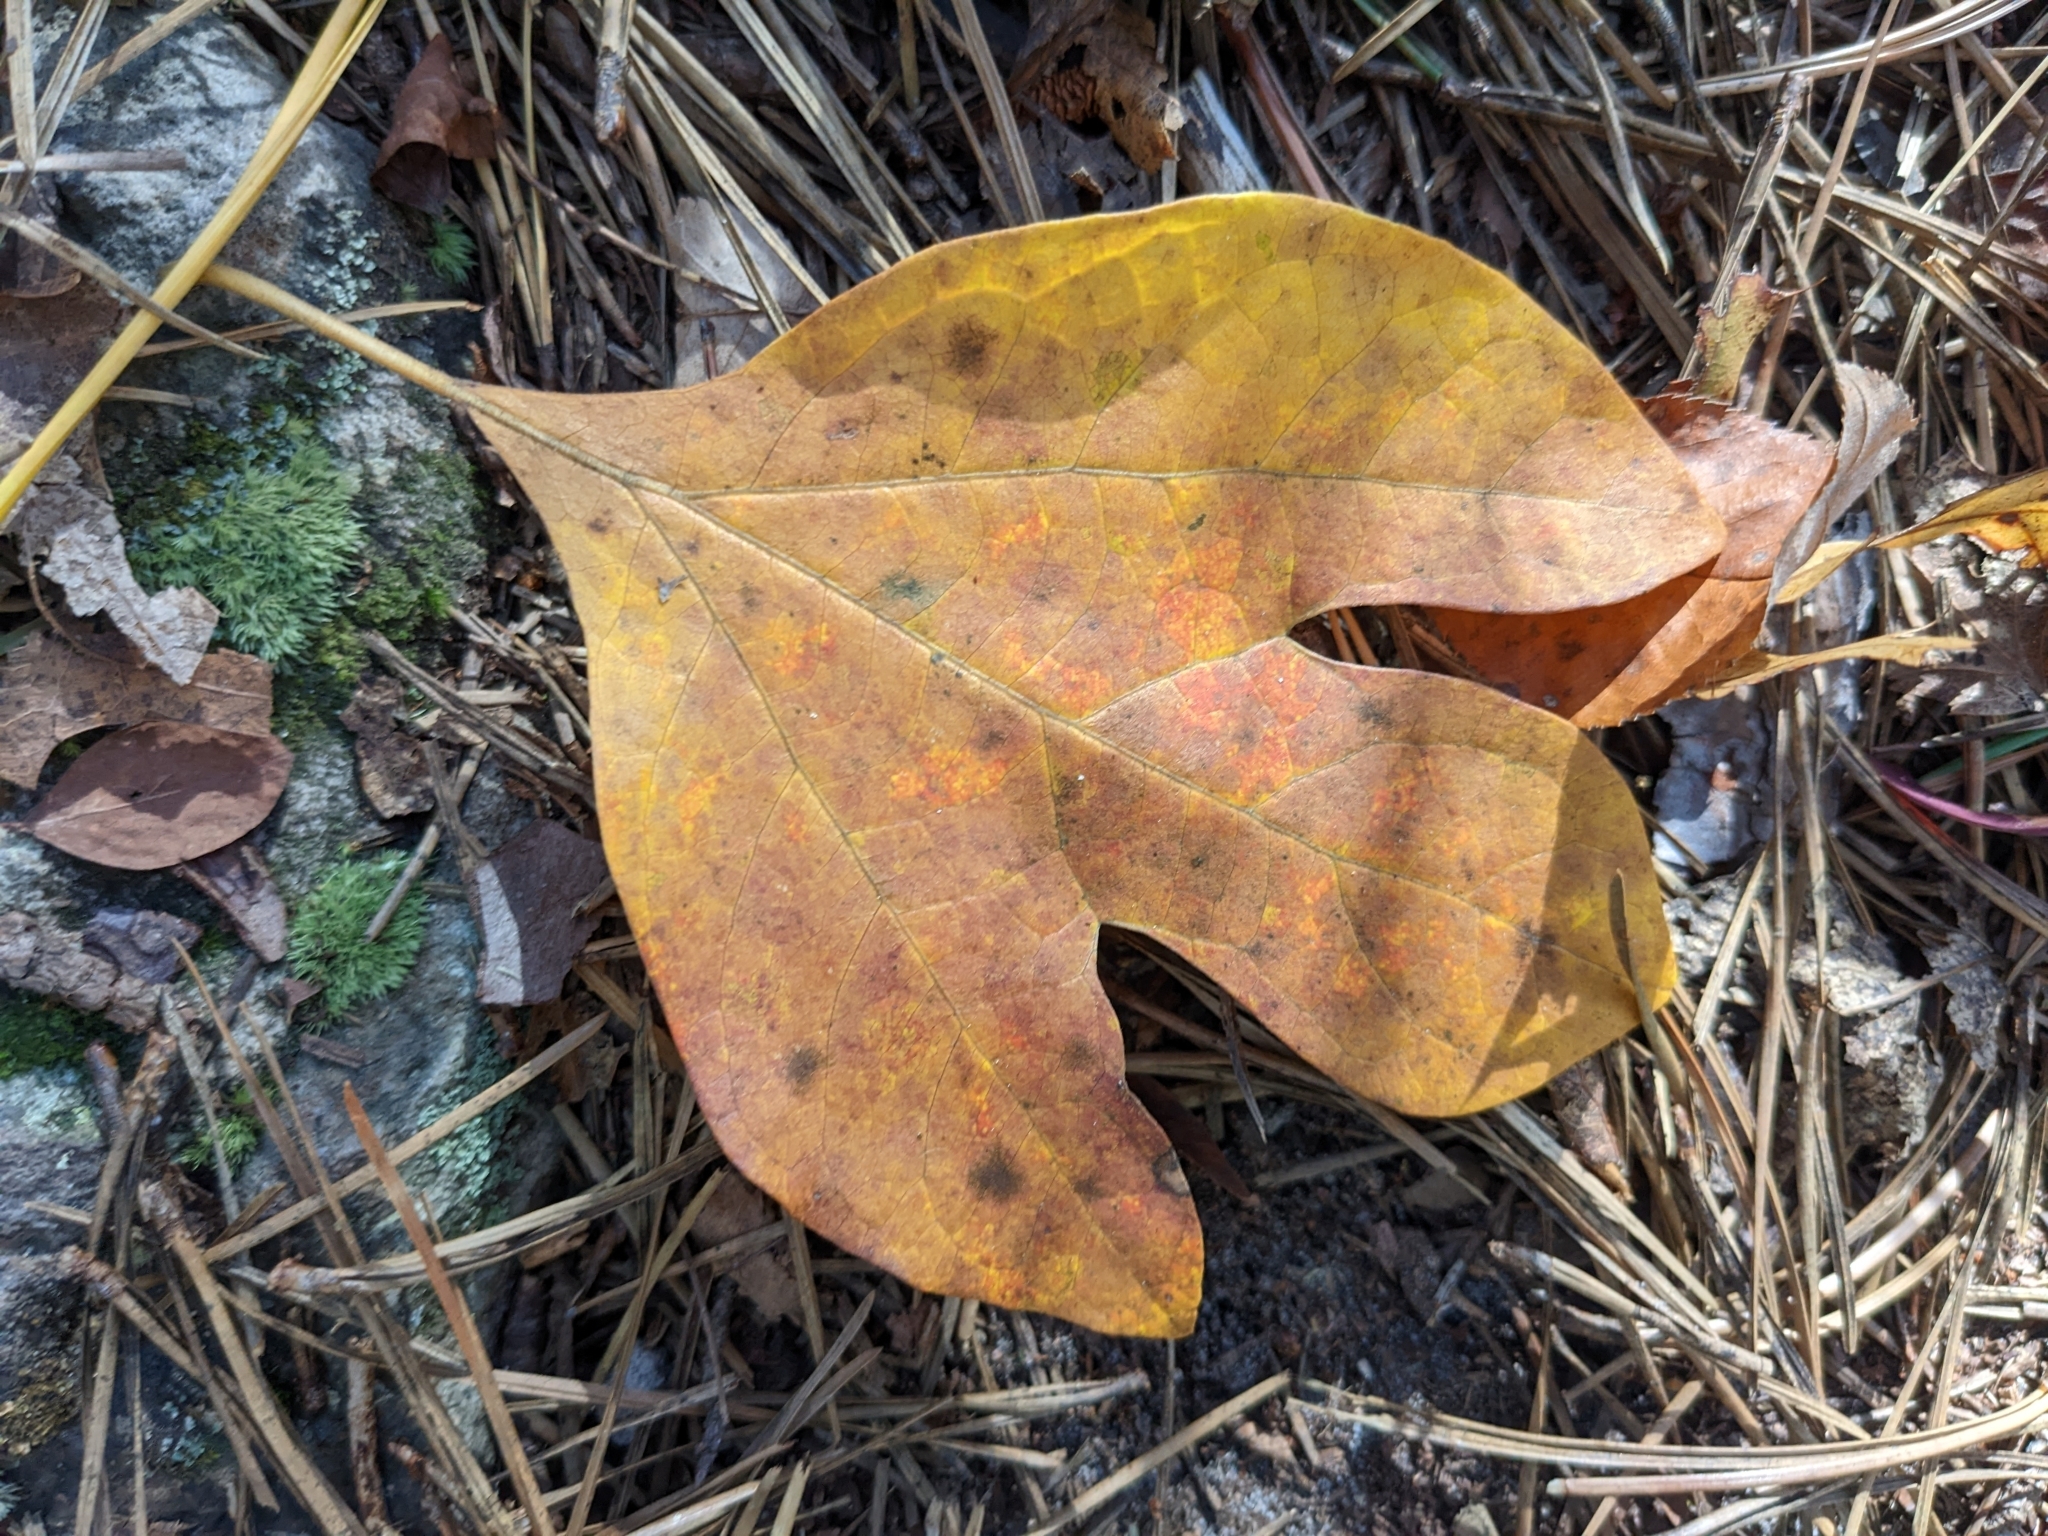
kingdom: Plantae
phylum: Tracheophyta
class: Magnoliopsida
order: Laurales
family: Lauraceae
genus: Sassafras
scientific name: Sassafras albidum
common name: Sassafras
